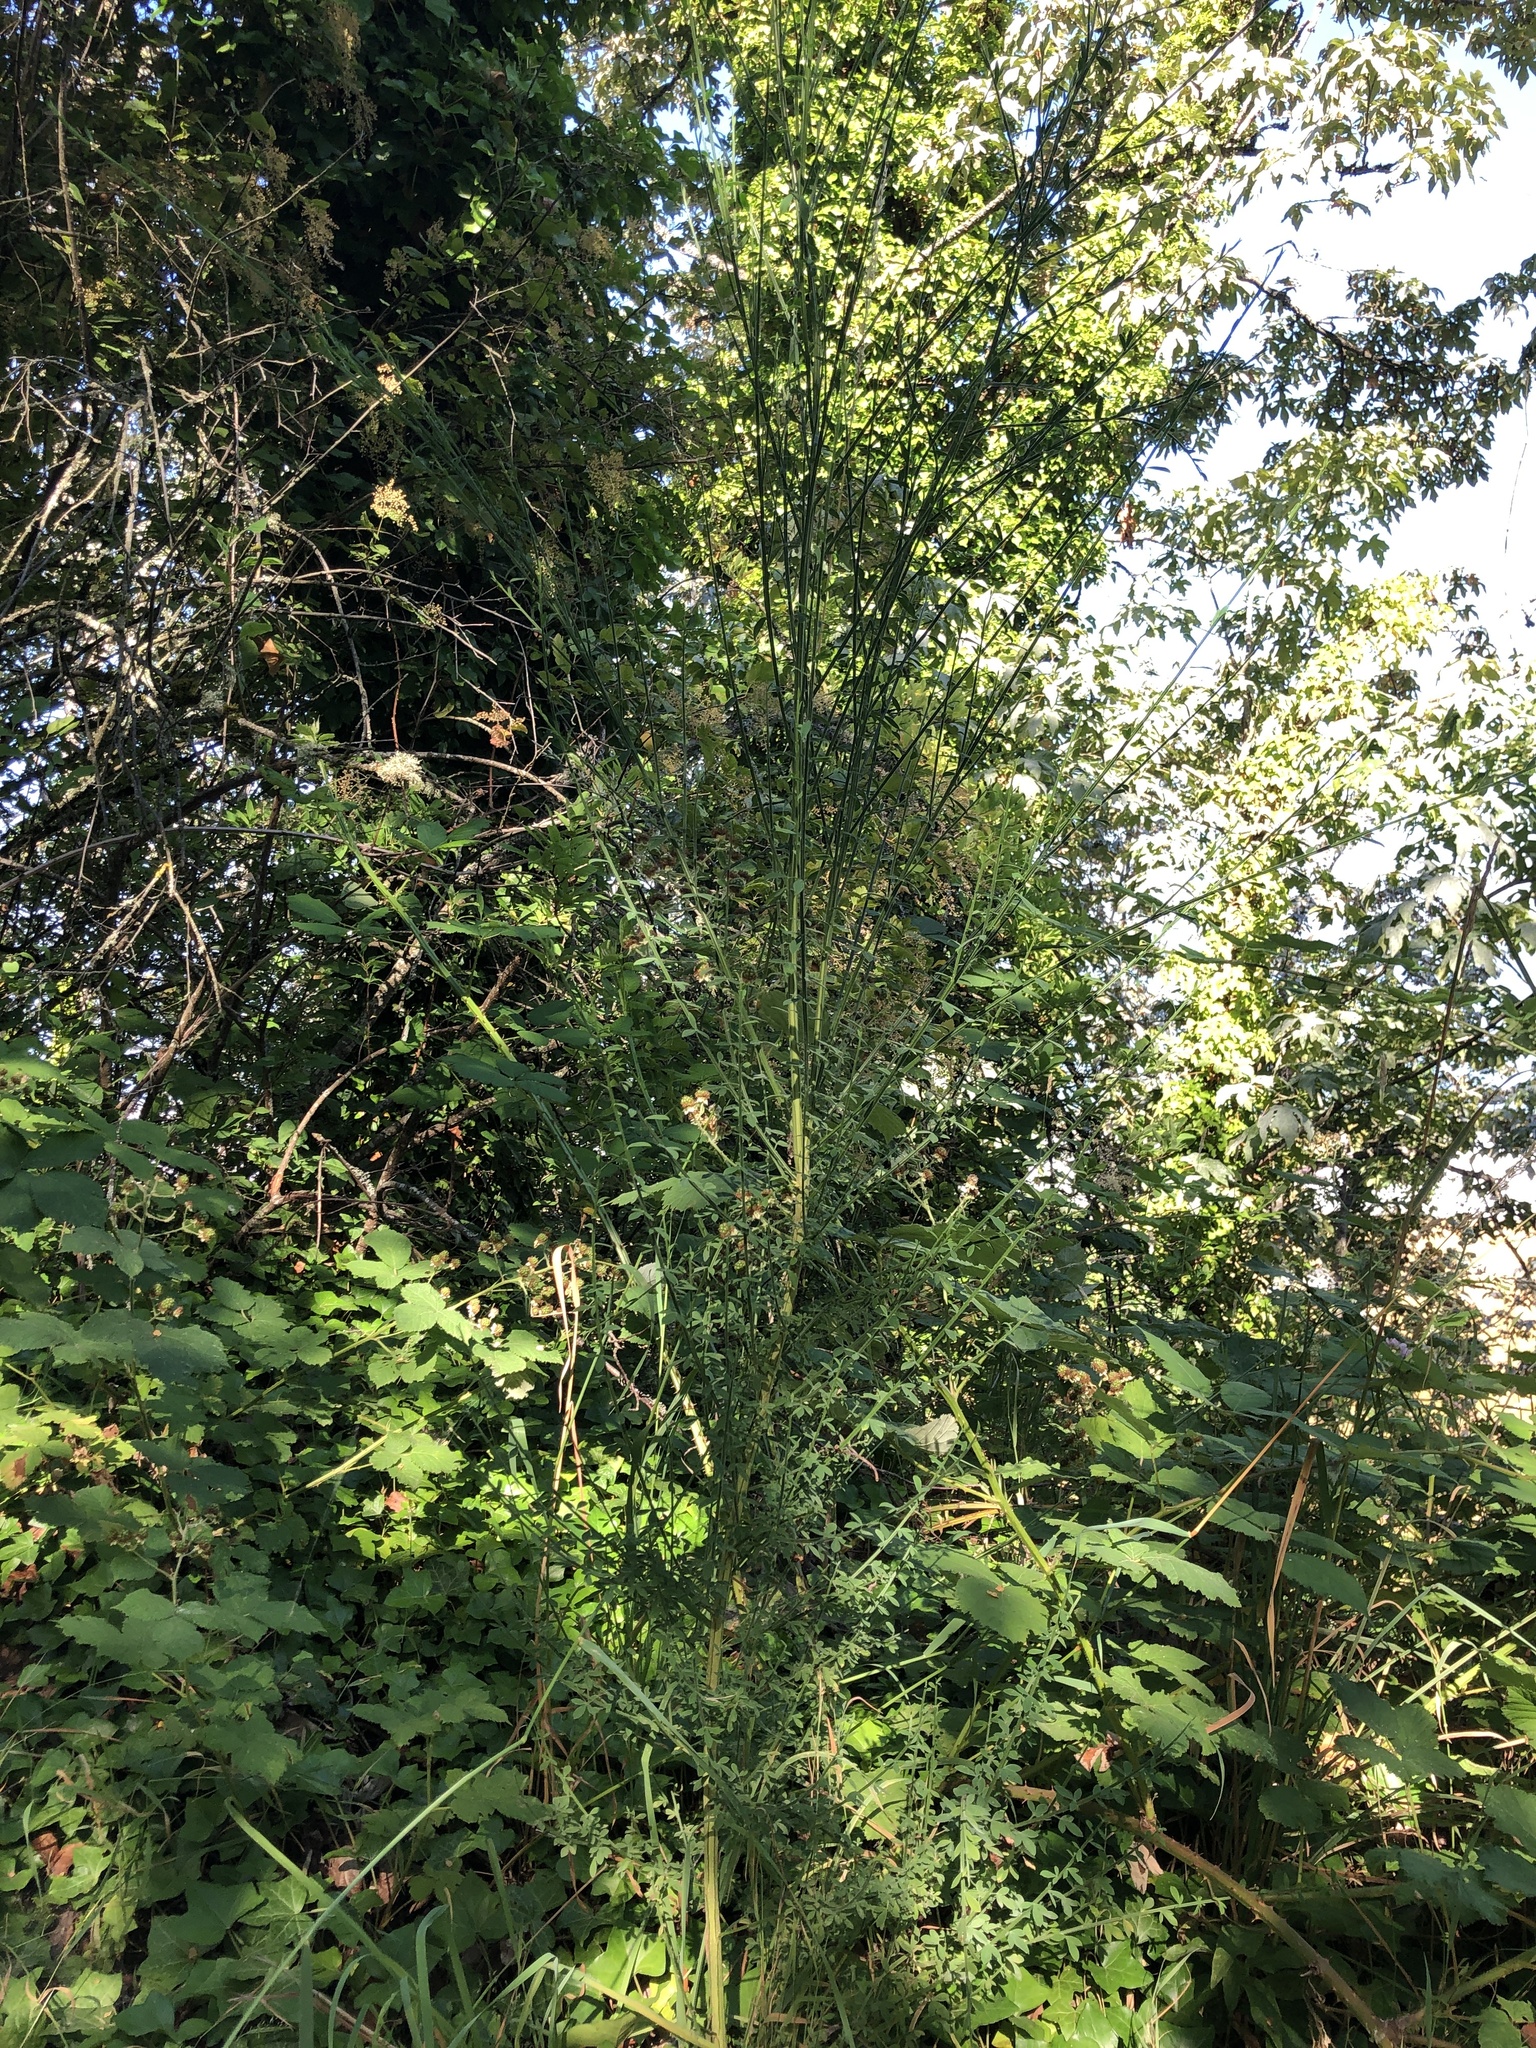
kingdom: Plantae
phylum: Tracheophyta
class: Magnoliopsida
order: Fabales
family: Fabaceae
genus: Cytisus
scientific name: Cytisus scoparius
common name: Scotch broom
